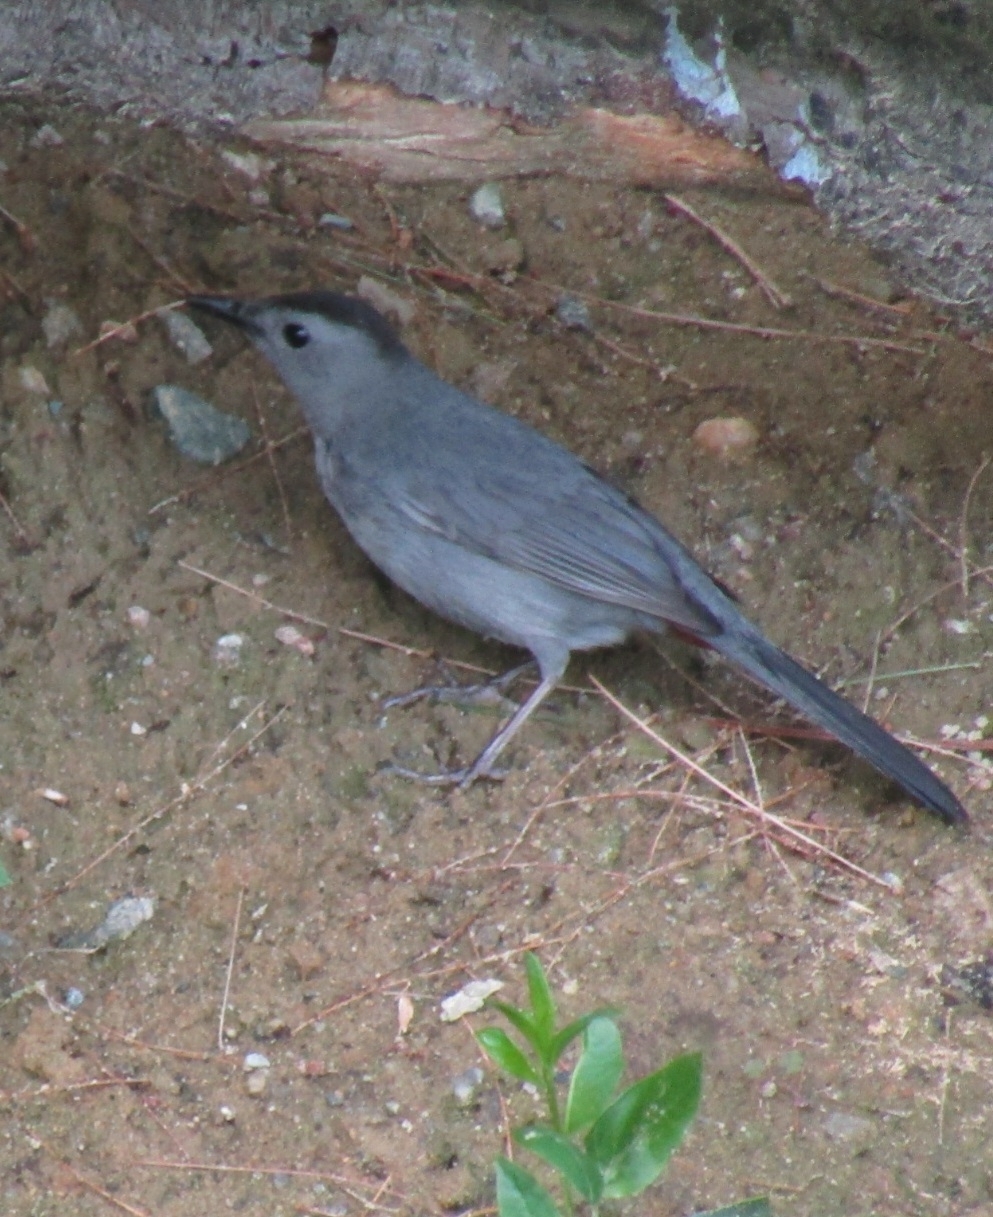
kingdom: Animalia
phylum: Chordata
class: Aves
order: Passeriformes
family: Mimidae
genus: Dumetella
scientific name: Dumetella carolinensis
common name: Gray catbird
